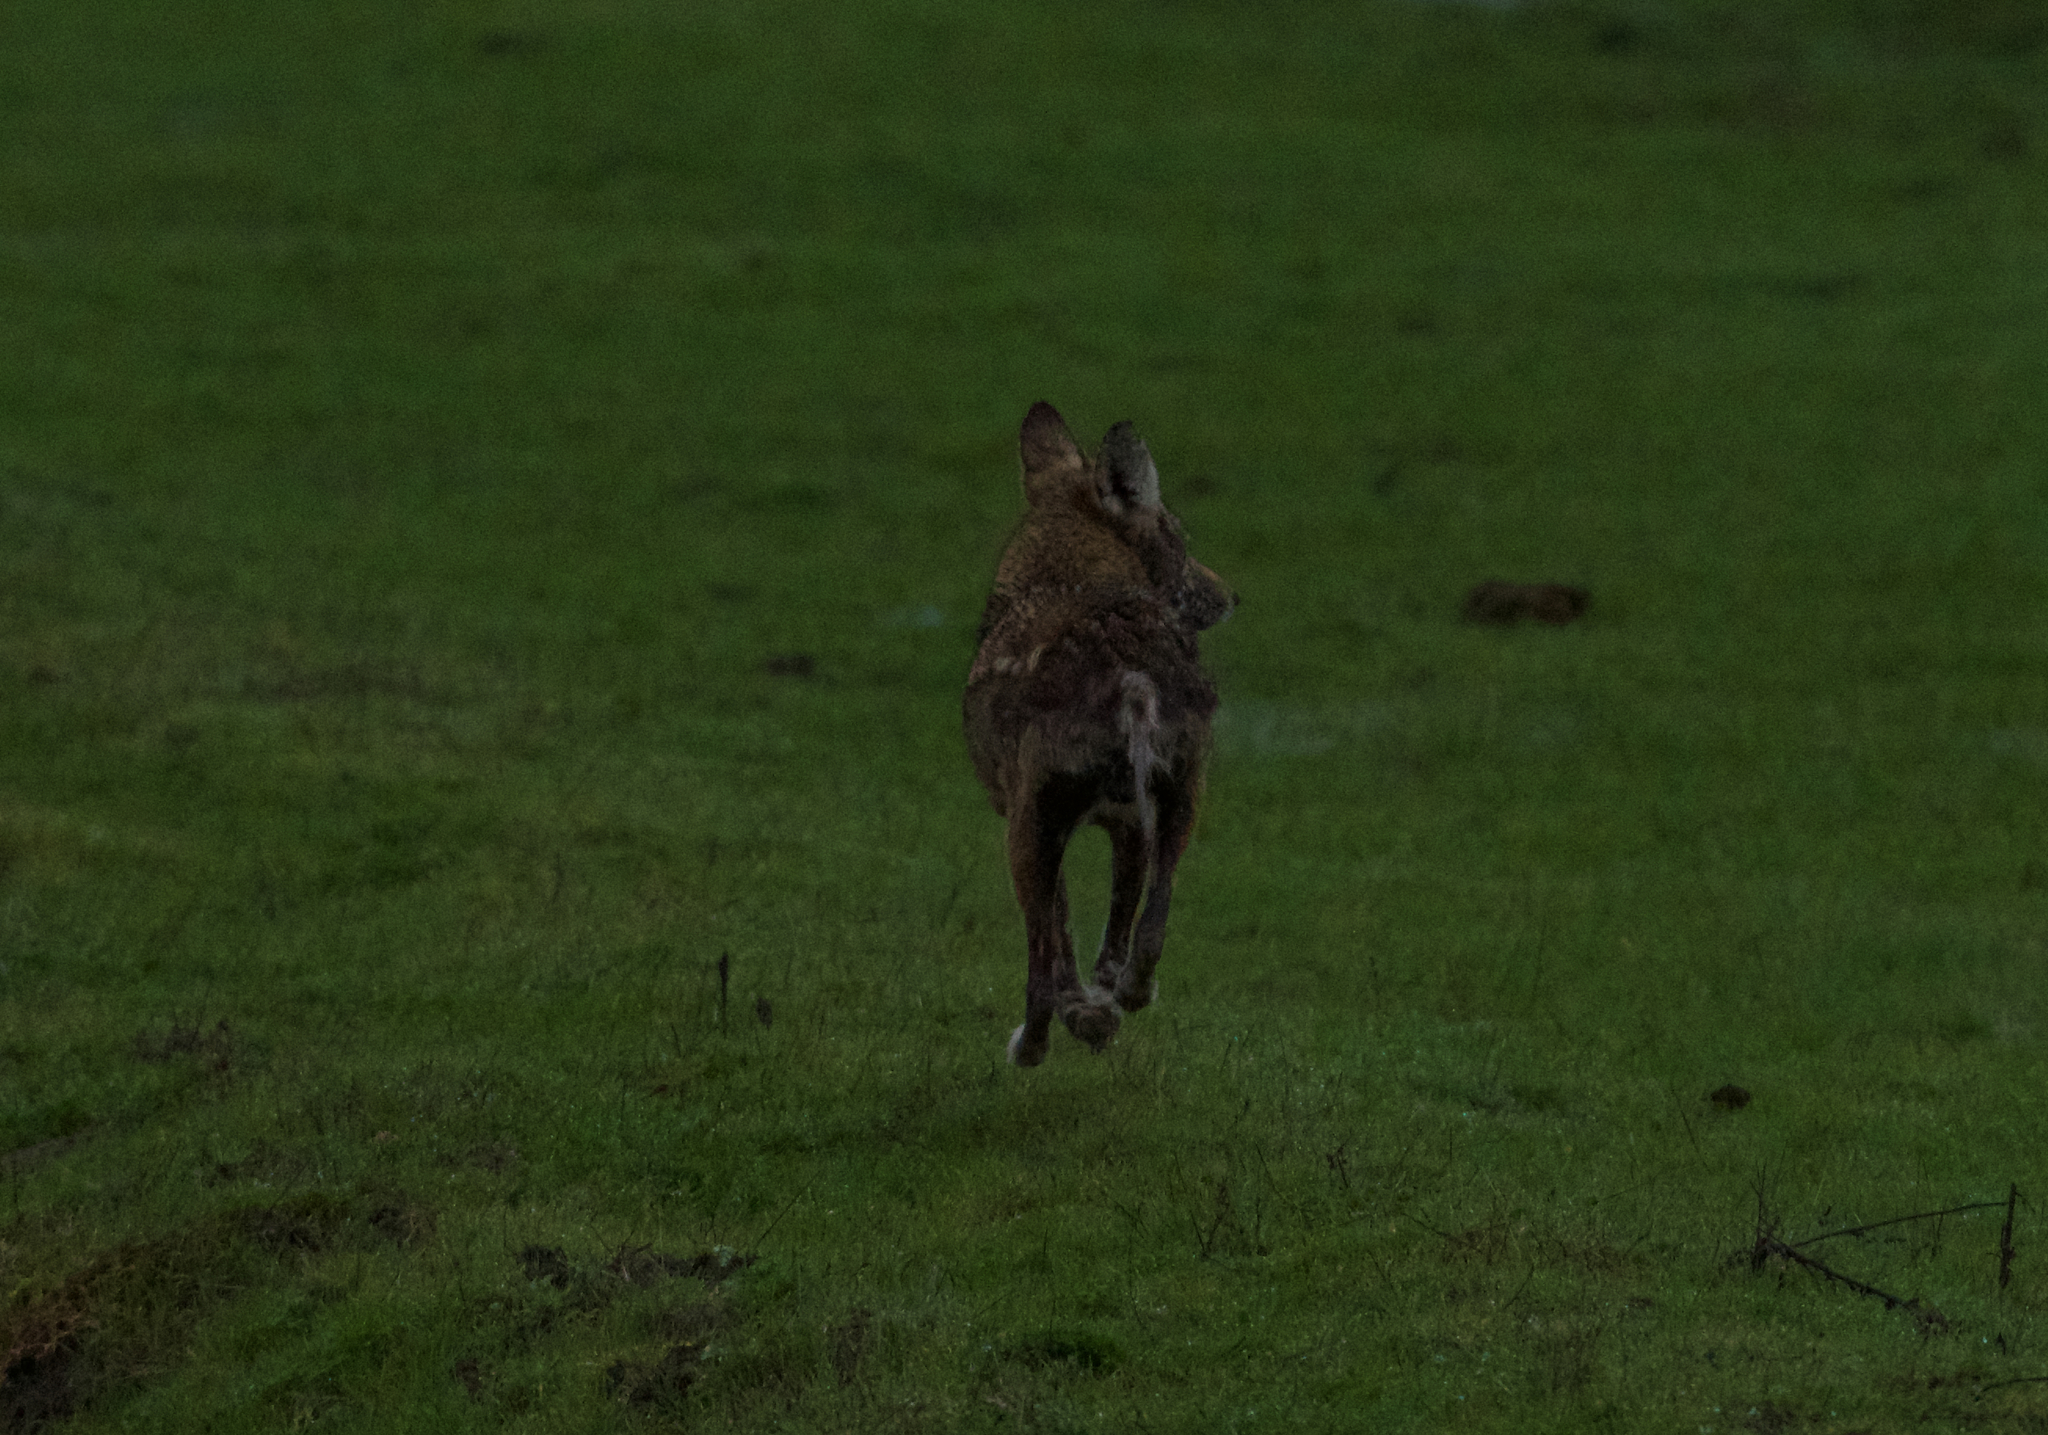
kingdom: Animalia
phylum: Chordata
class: Mammalia
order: Carnivora
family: Canidae
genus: Canis
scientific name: Canis latrans
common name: Coyote
